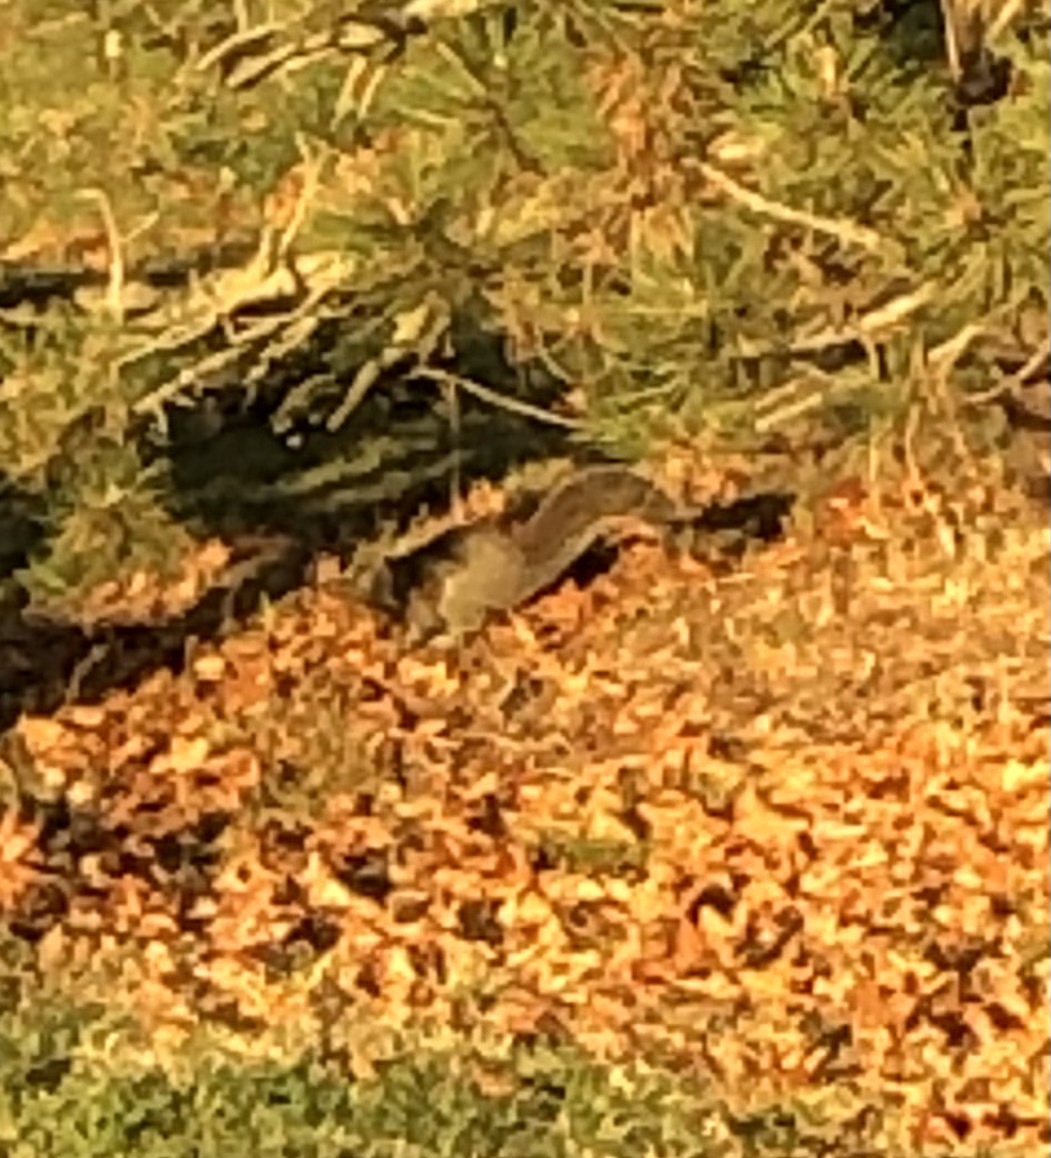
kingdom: Animalia
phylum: Chordata
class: Mammalia
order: Rodentia
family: Sciuridae
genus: Sciurus
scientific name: Sciurus carolinensis
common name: Eastern gray squirrel
